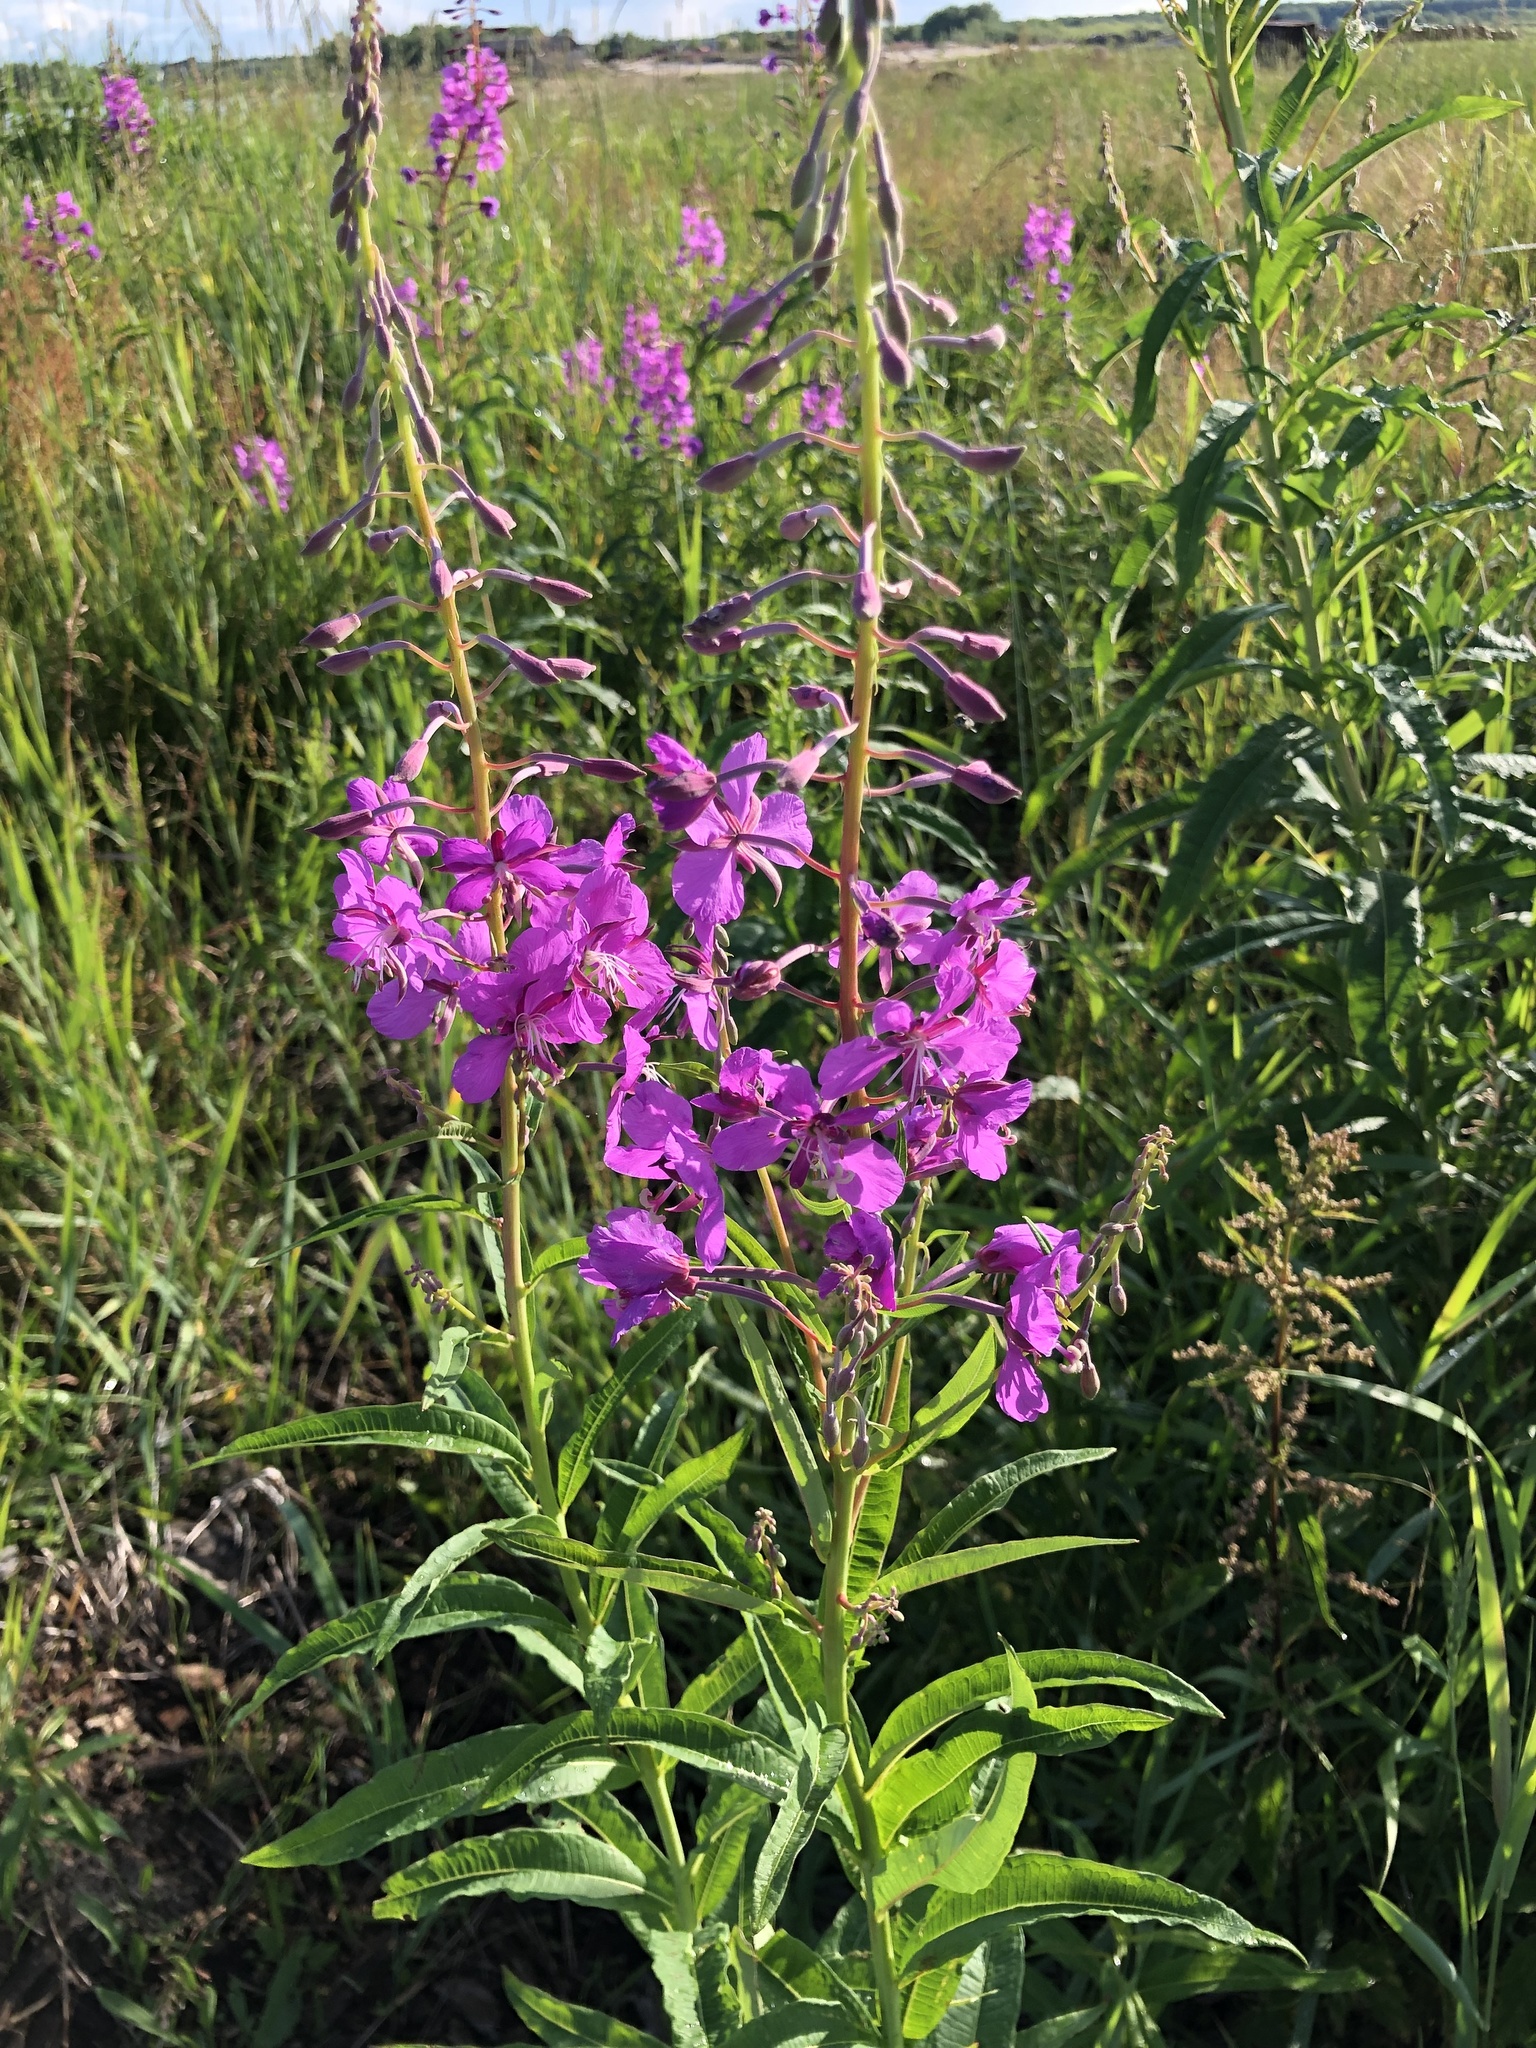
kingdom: Plantae
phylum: Tracheophyta
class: Magnoliopsida
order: Myrtales
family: Onagraceae
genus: Chamaenerion
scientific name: Chamaenerion angustifolium
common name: Fireweed
